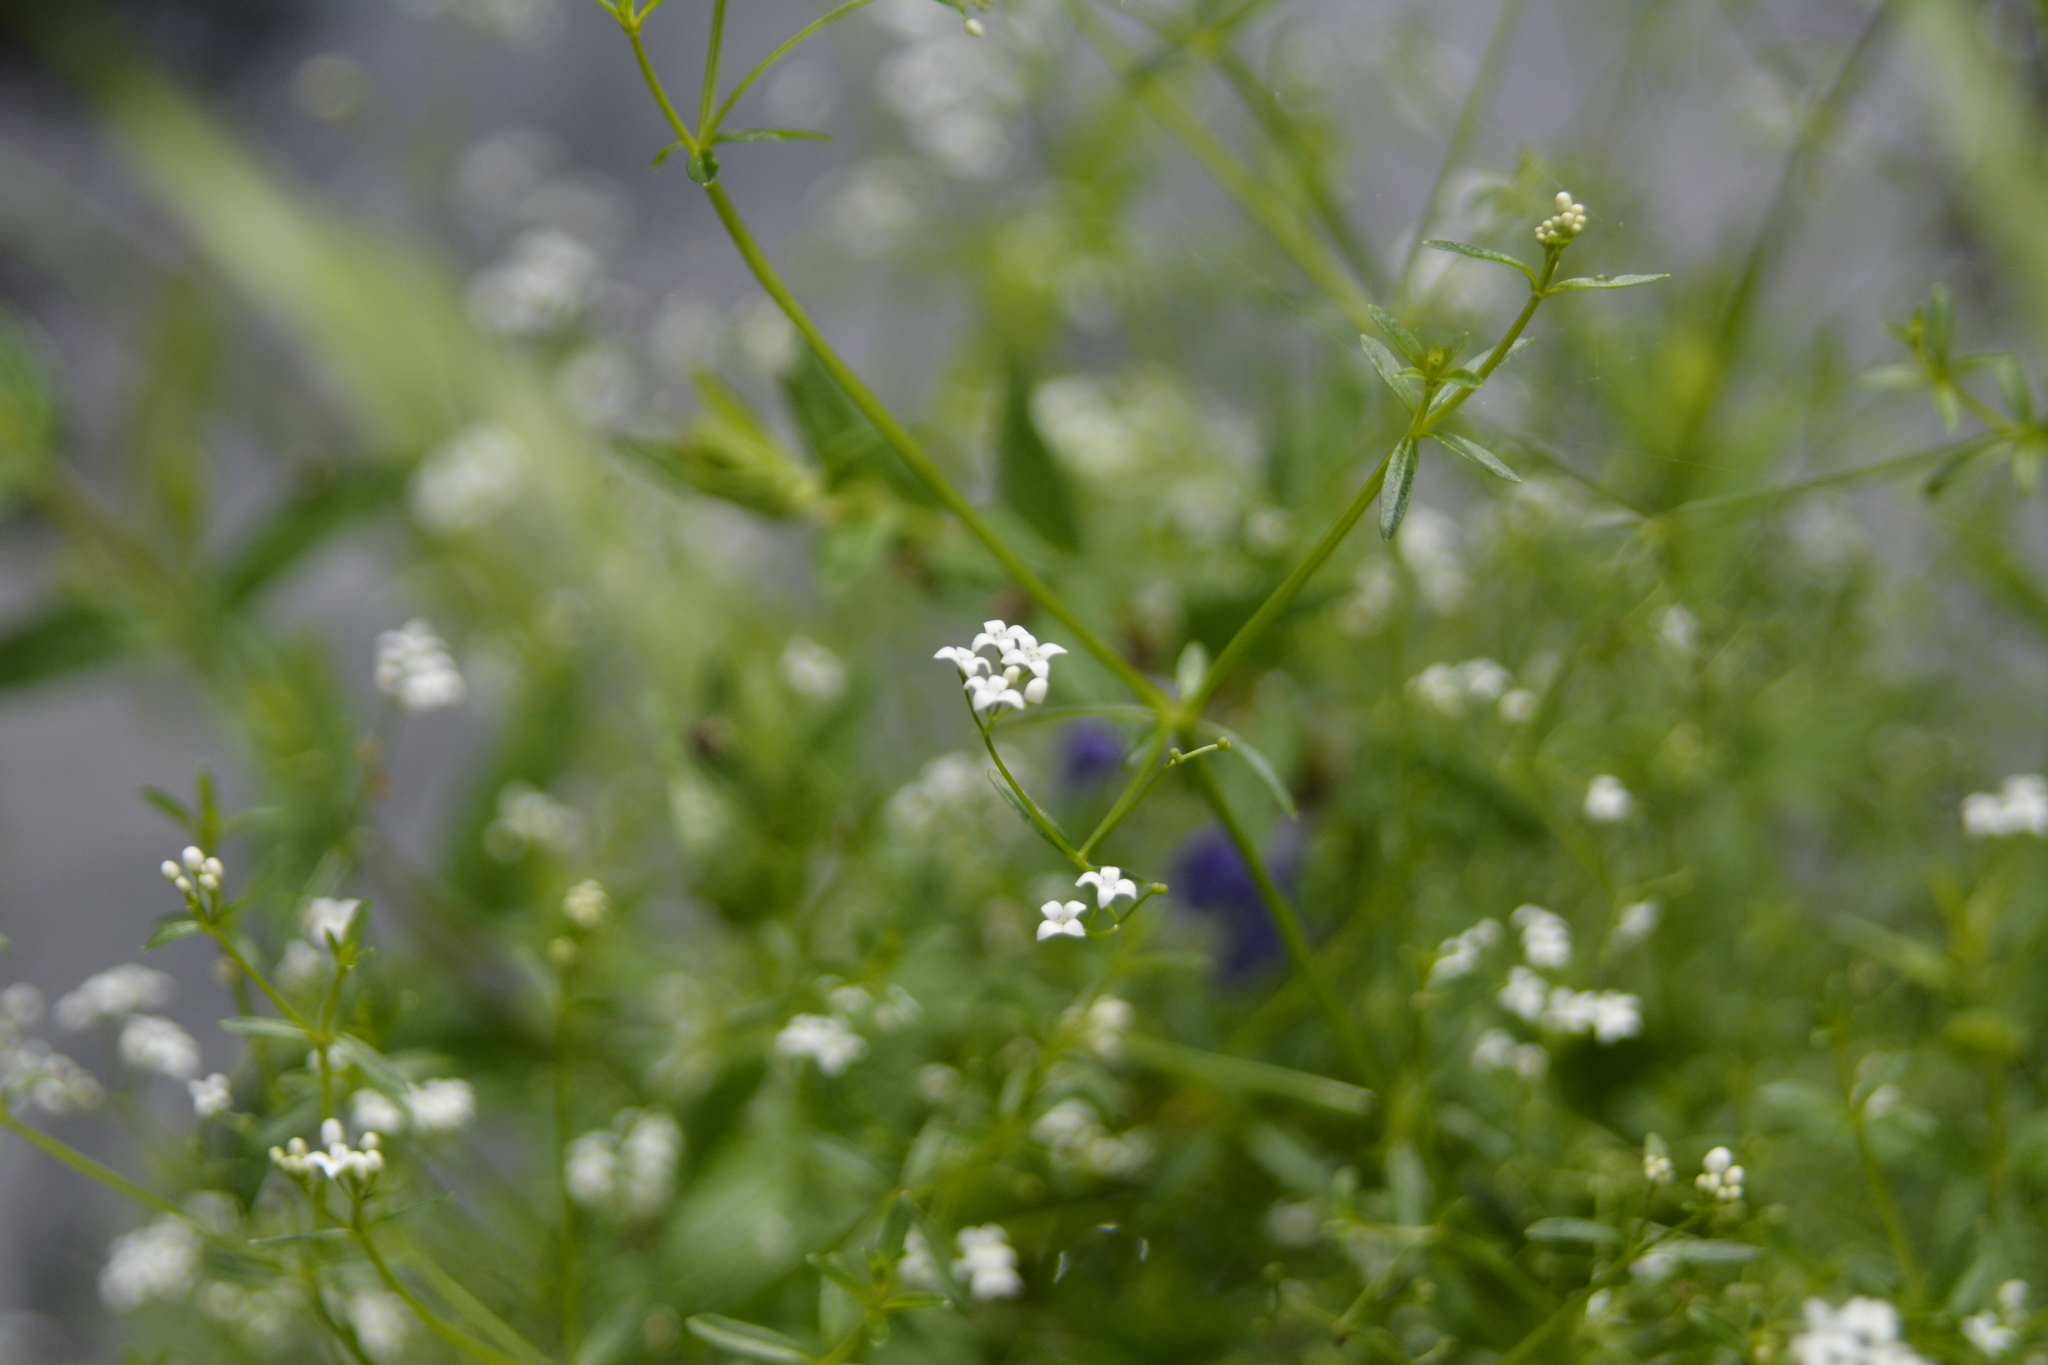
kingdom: Plantae
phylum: Tracheophyta
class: Magnoliopsida
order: Gentianales
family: Rubiaceae
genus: Galium
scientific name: Galium palustre
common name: Common marsh-bedstraw
